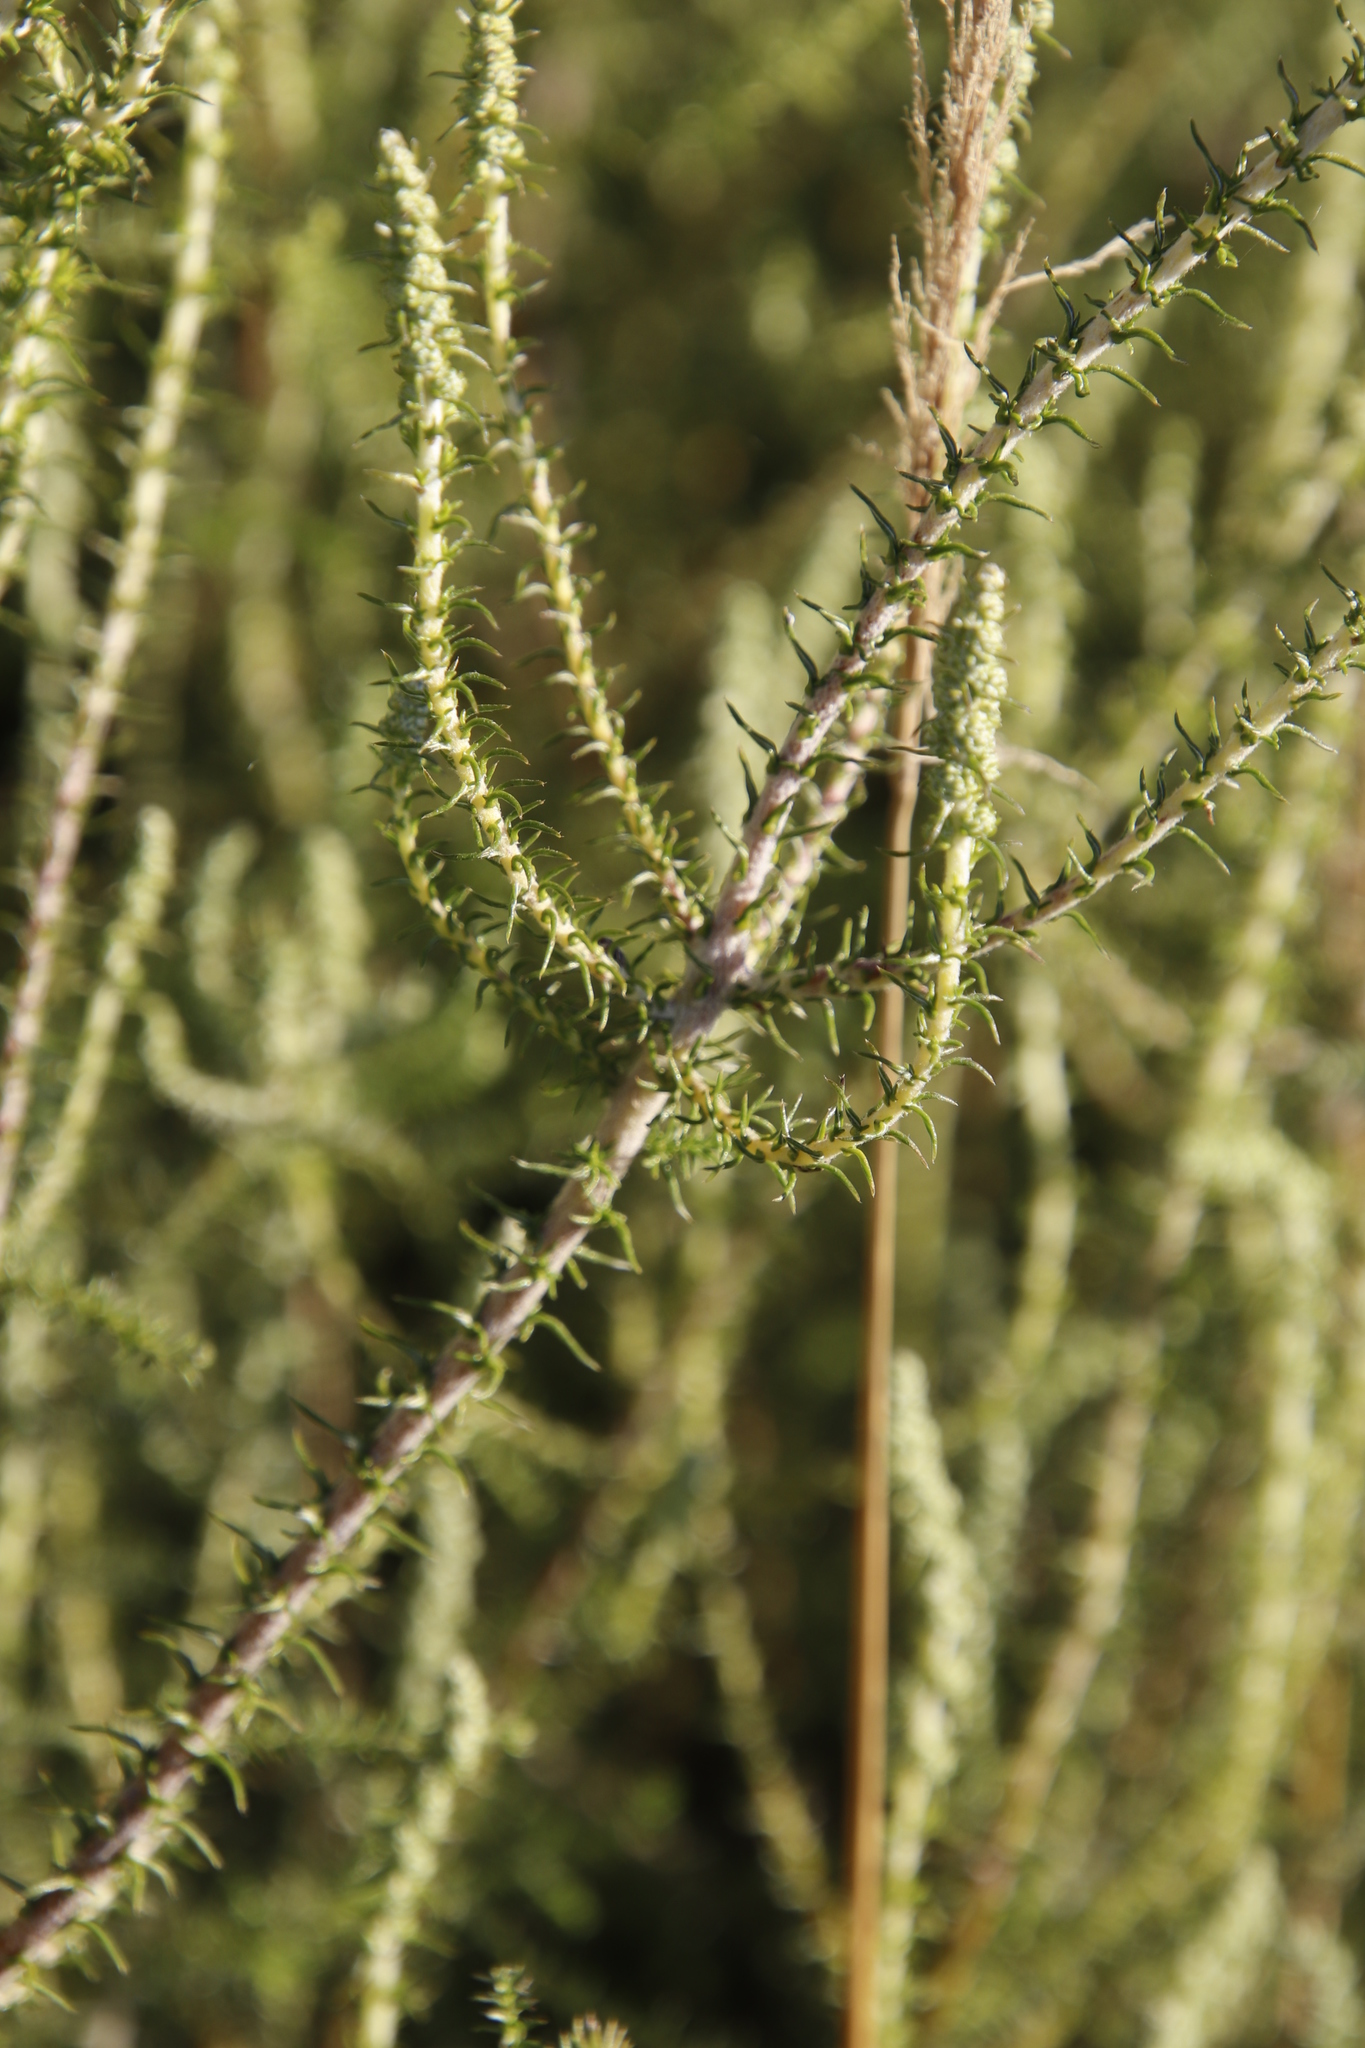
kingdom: Plantae
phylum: Tracheophyta
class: Magnoliopsida
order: Asterales
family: Asteraceae
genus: Seriphium
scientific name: Seriphium cinereum
